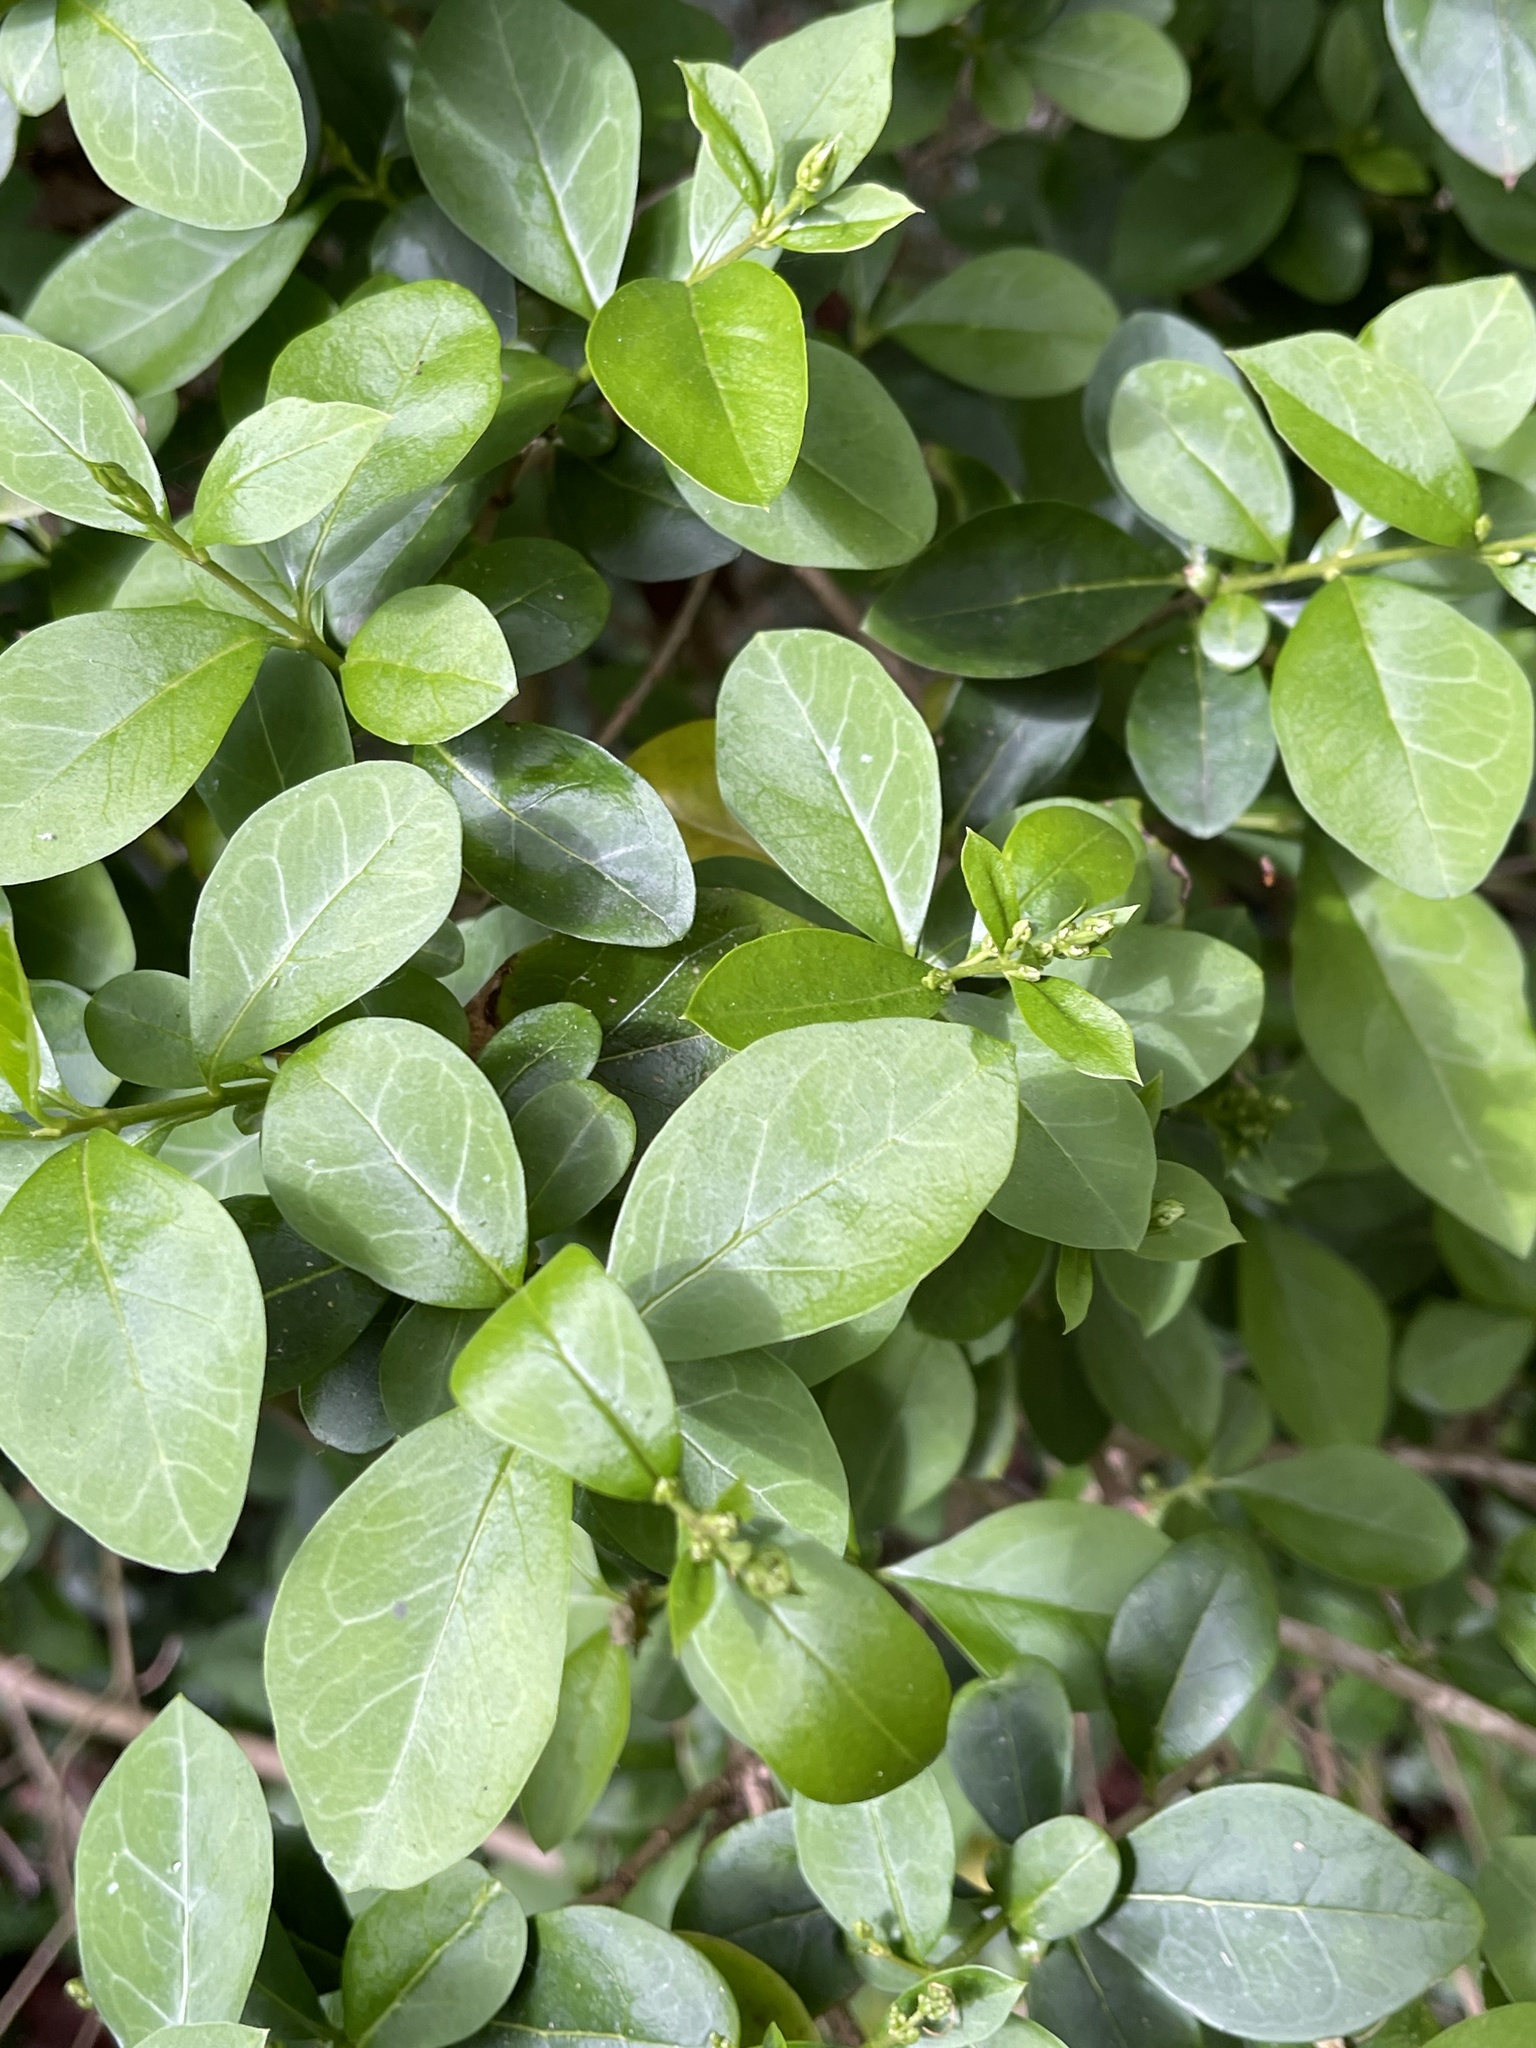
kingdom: Plantae
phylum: Tracheophyta
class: Magnoliopsida
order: Lamiales
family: Oleaceae
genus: Ligustrum
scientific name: Ligustrum ovalifolium
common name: California privet
